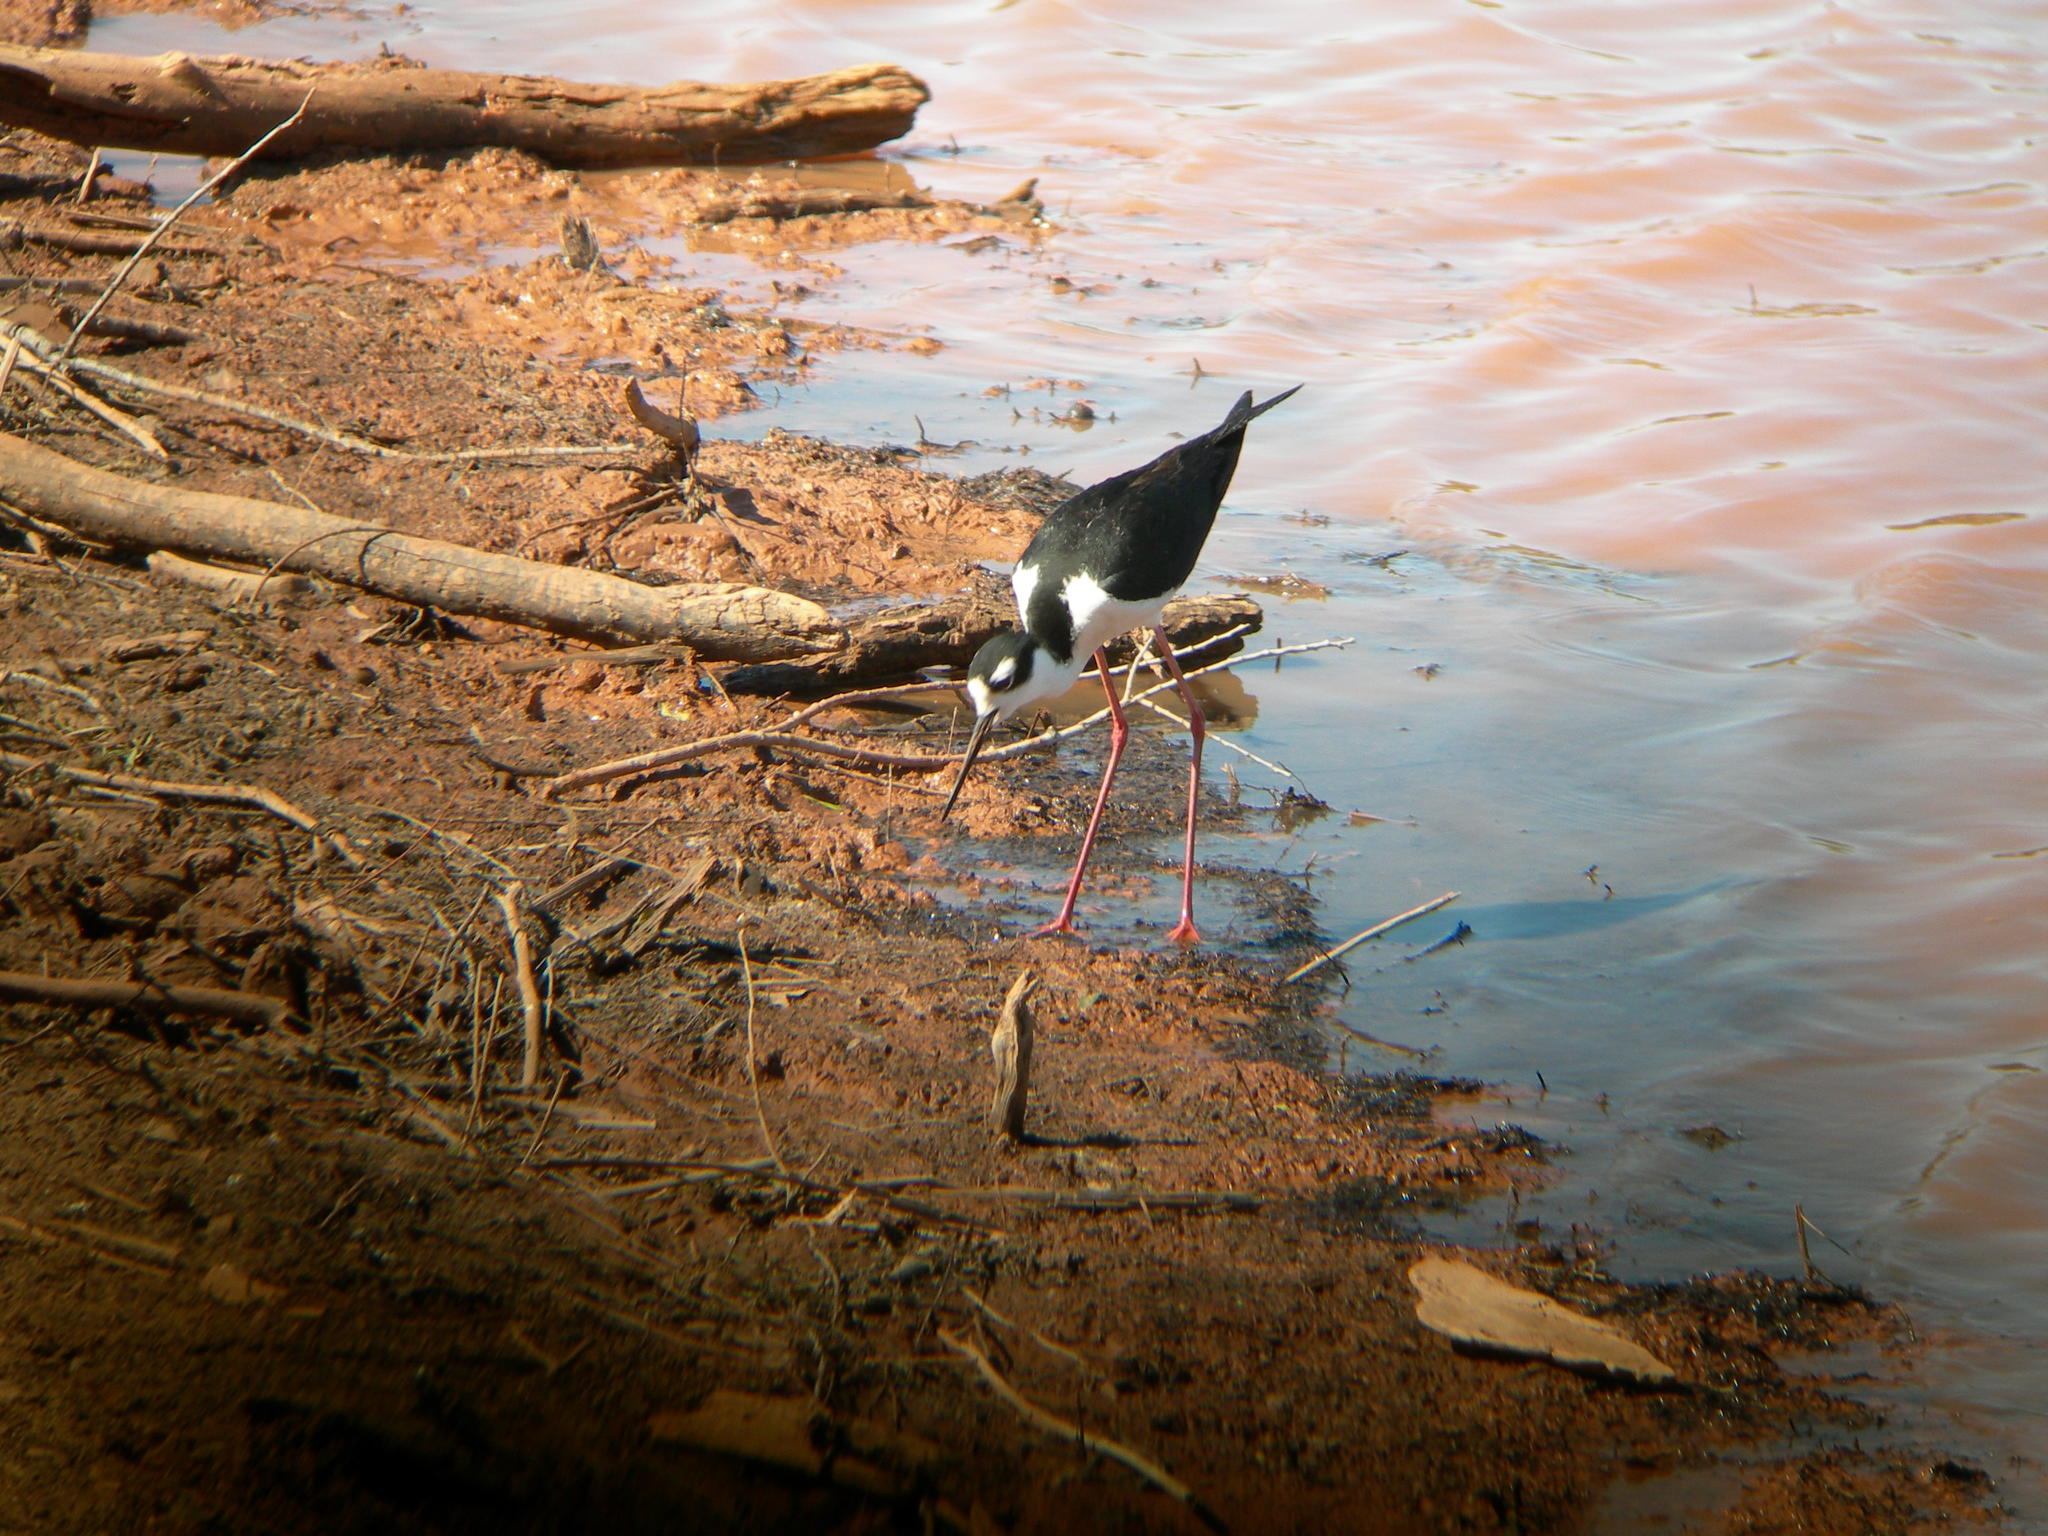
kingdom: Animalia
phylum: Chordata
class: Aves
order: Charadriiformes
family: Recurvirostridae
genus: Himantopus
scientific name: Himantopus mexicanus
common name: Black-necked stilt
